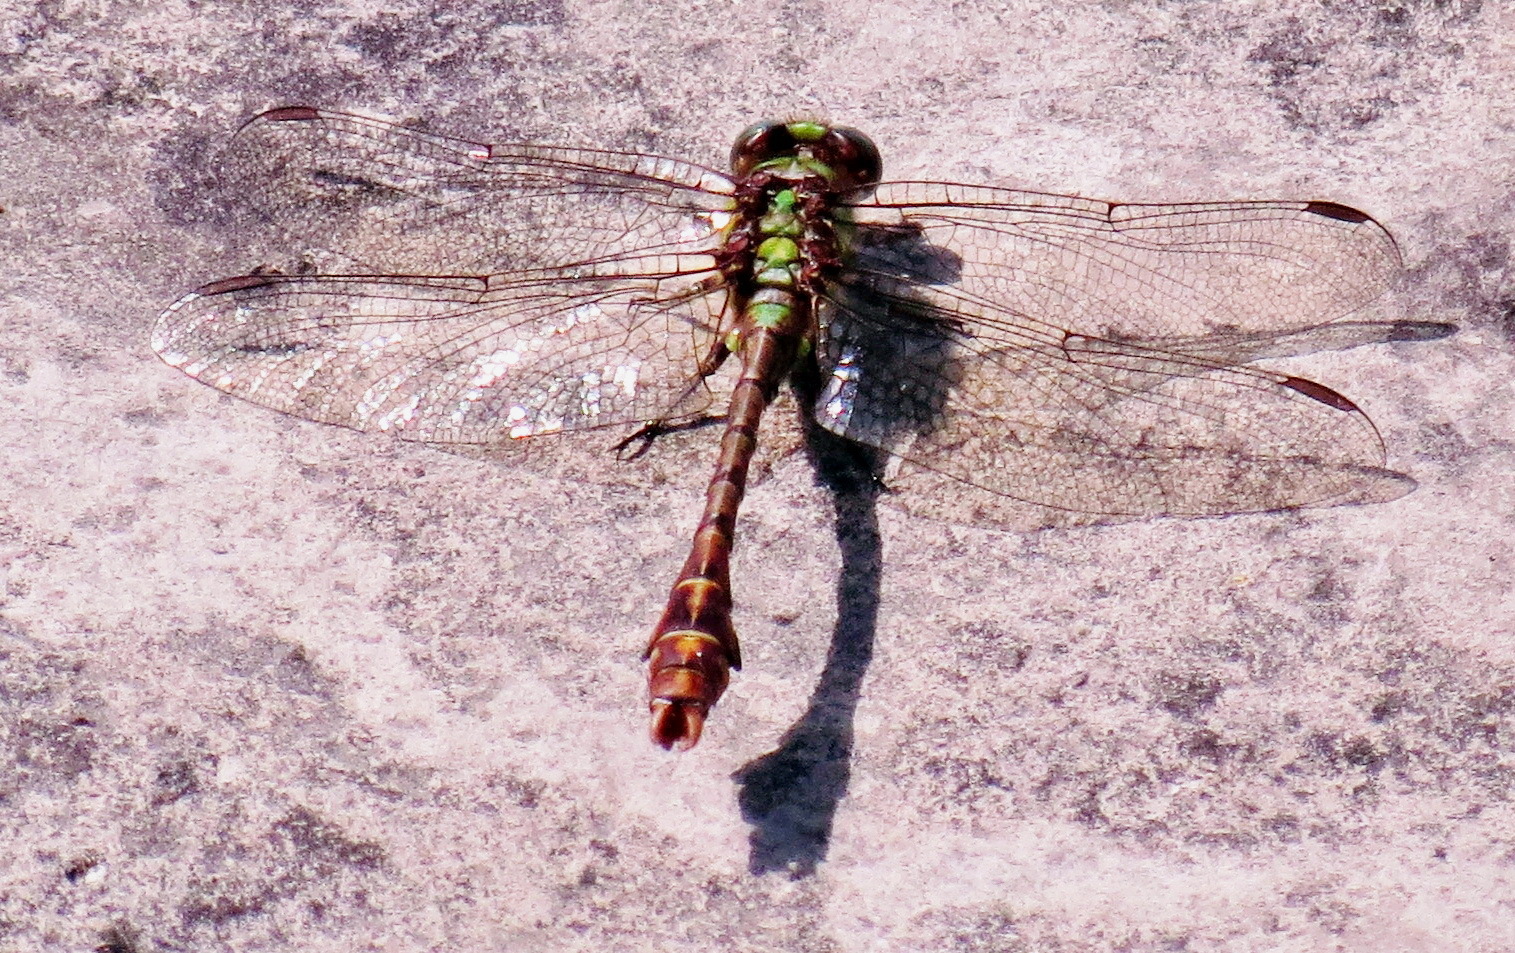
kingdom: Animalia
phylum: Arthropoda
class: Insecta
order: Odonata
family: Gomphidae
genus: Ophiogomphus
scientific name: Ophiogomphus rupinsulensis
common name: Rusty snaketail
